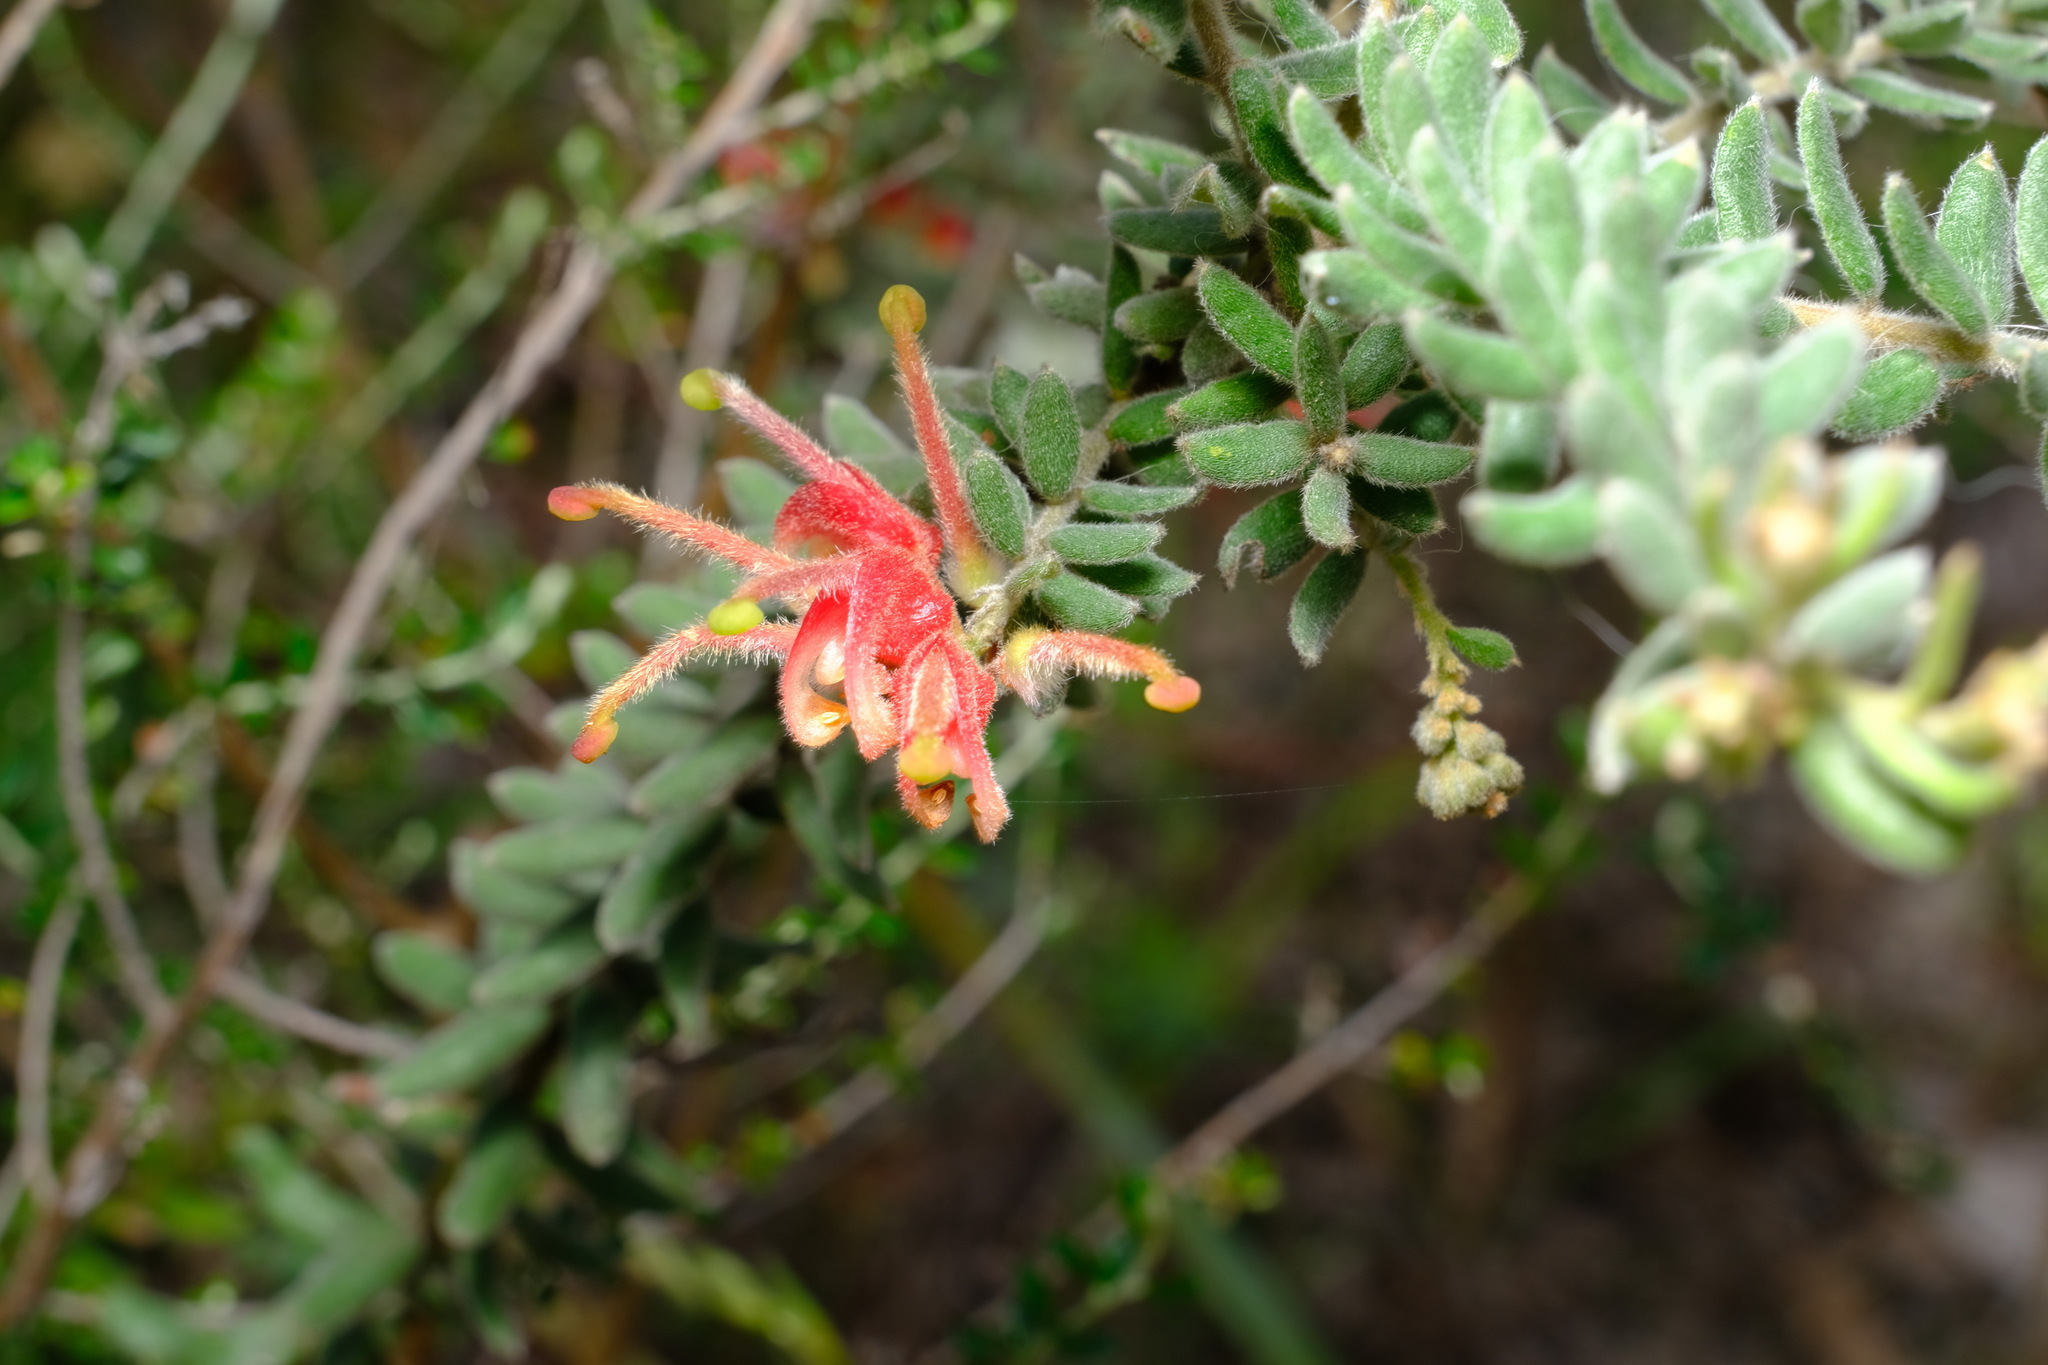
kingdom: Plantae
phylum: Tracheophyta
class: Magnoliopsida
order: Proteales
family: Proteaceae
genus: Grevillea
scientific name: Grevillea alpina
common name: Catclaws grevillea
